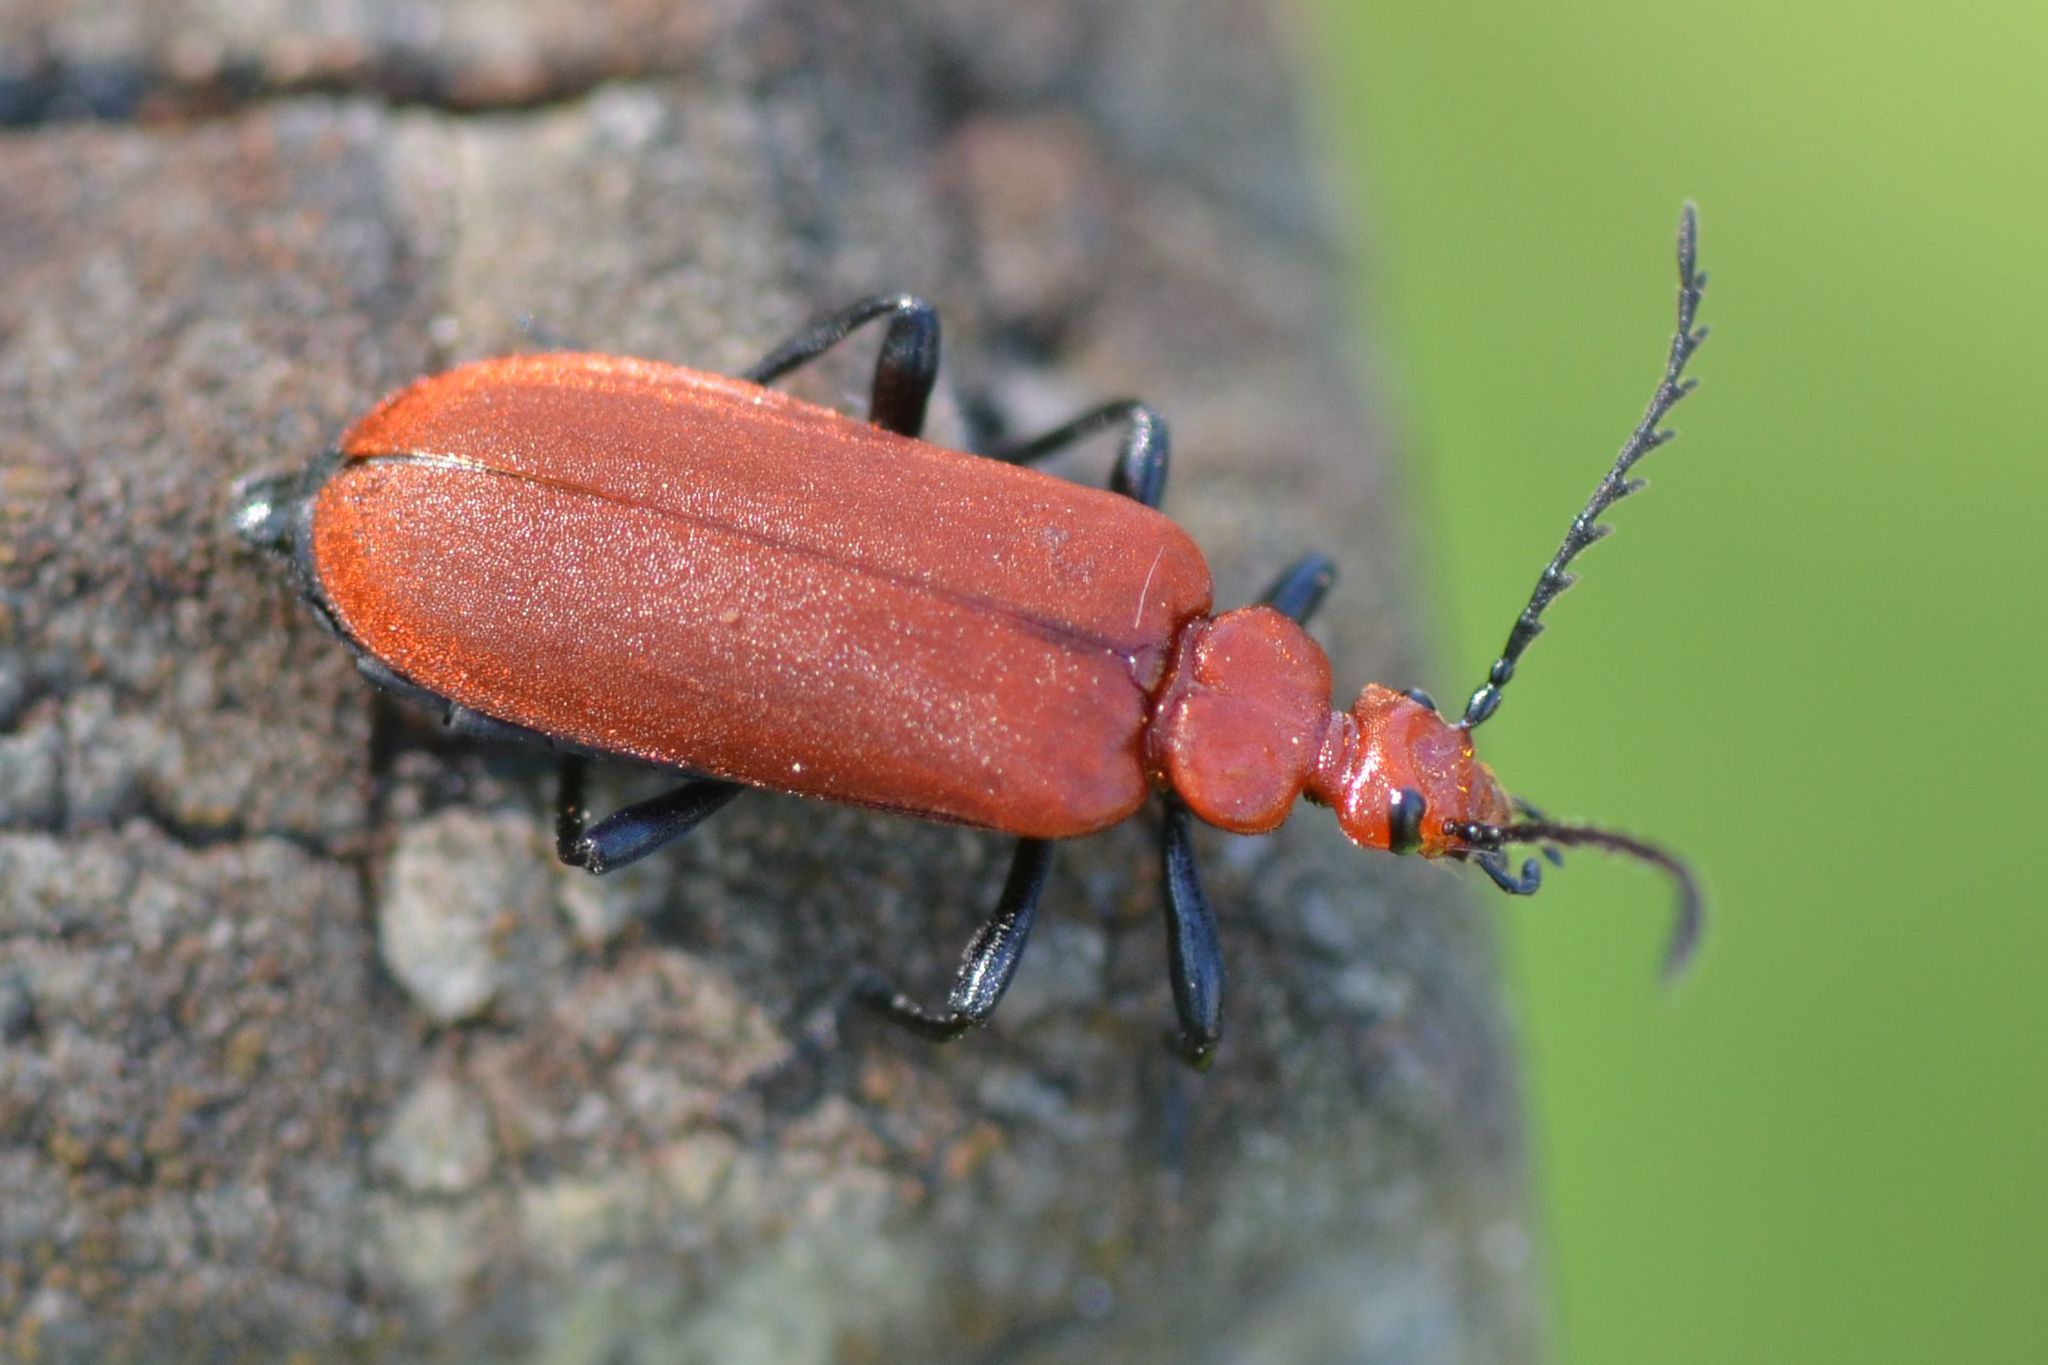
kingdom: Animalia
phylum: Arthropoda
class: Insecta
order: Coleoptera
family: Pyrochroidae
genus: Pyrochroa
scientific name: Pyrochroa serraticornis
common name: Red-headed cardinal beetle
